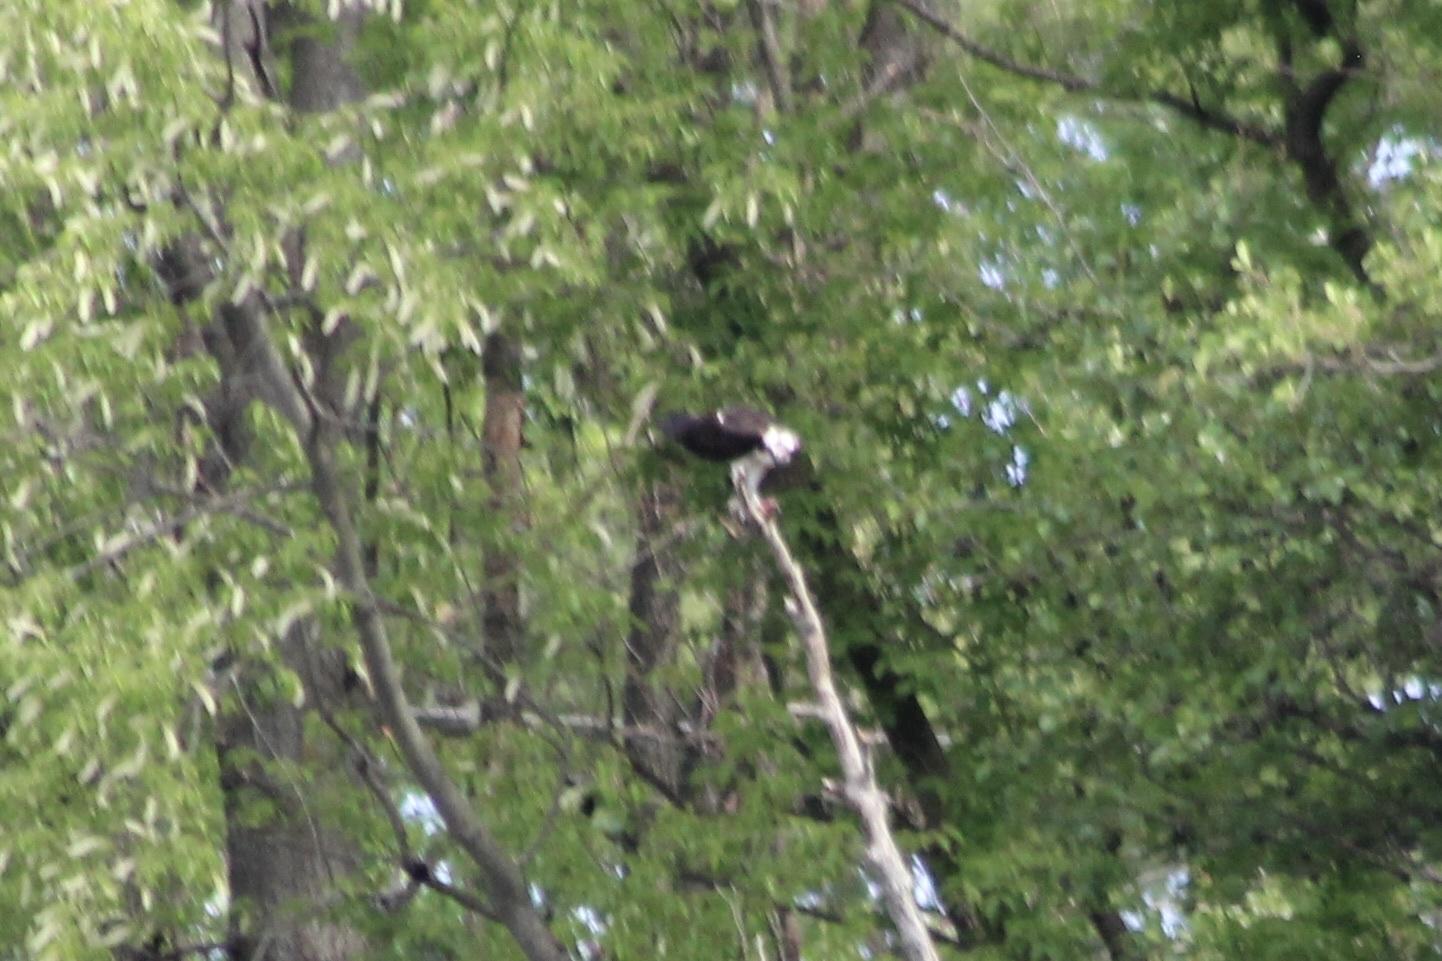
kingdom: Animalia
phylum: Chordata
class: Aves
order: Accipitriformes
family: Pandionidae
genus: Pandion
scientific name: Pandion haliaetus
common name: Osprey
